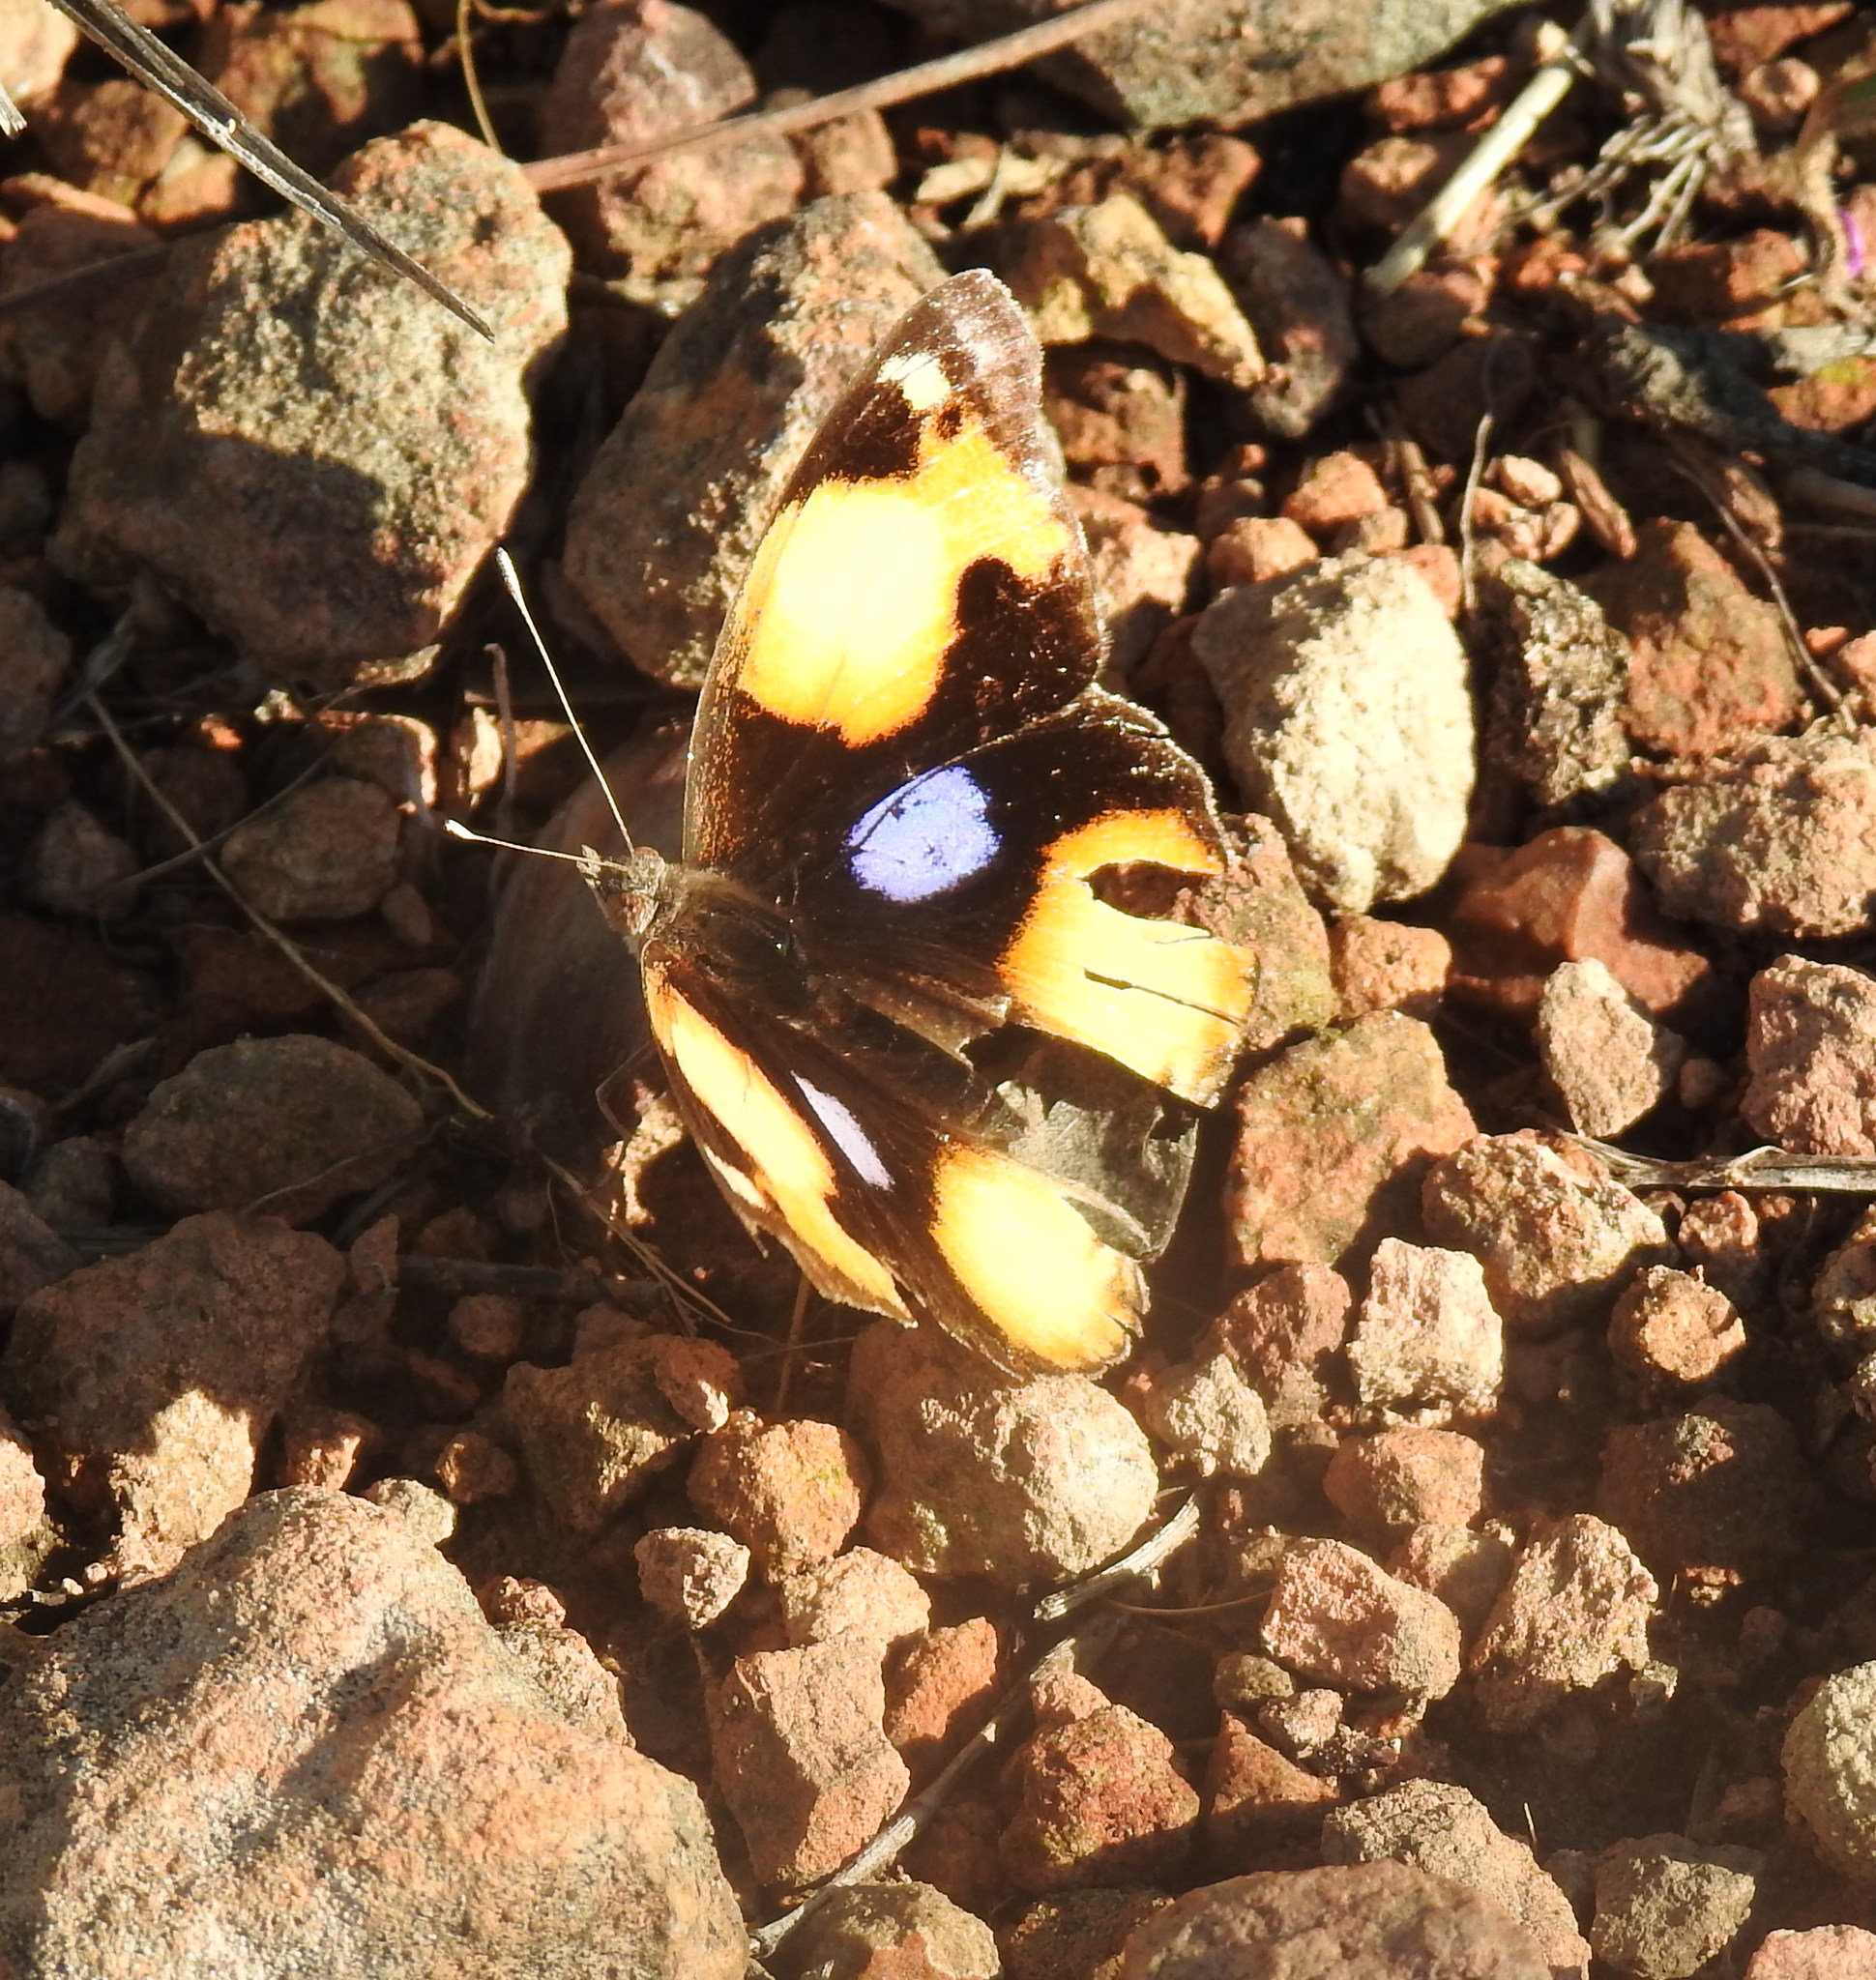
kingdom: Animalia
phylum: Arthropoda
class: Insecta
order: Lepidoptera
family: Nymphalidae
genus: Junonia
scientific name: Junonia hierta
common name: Yellow pansy
